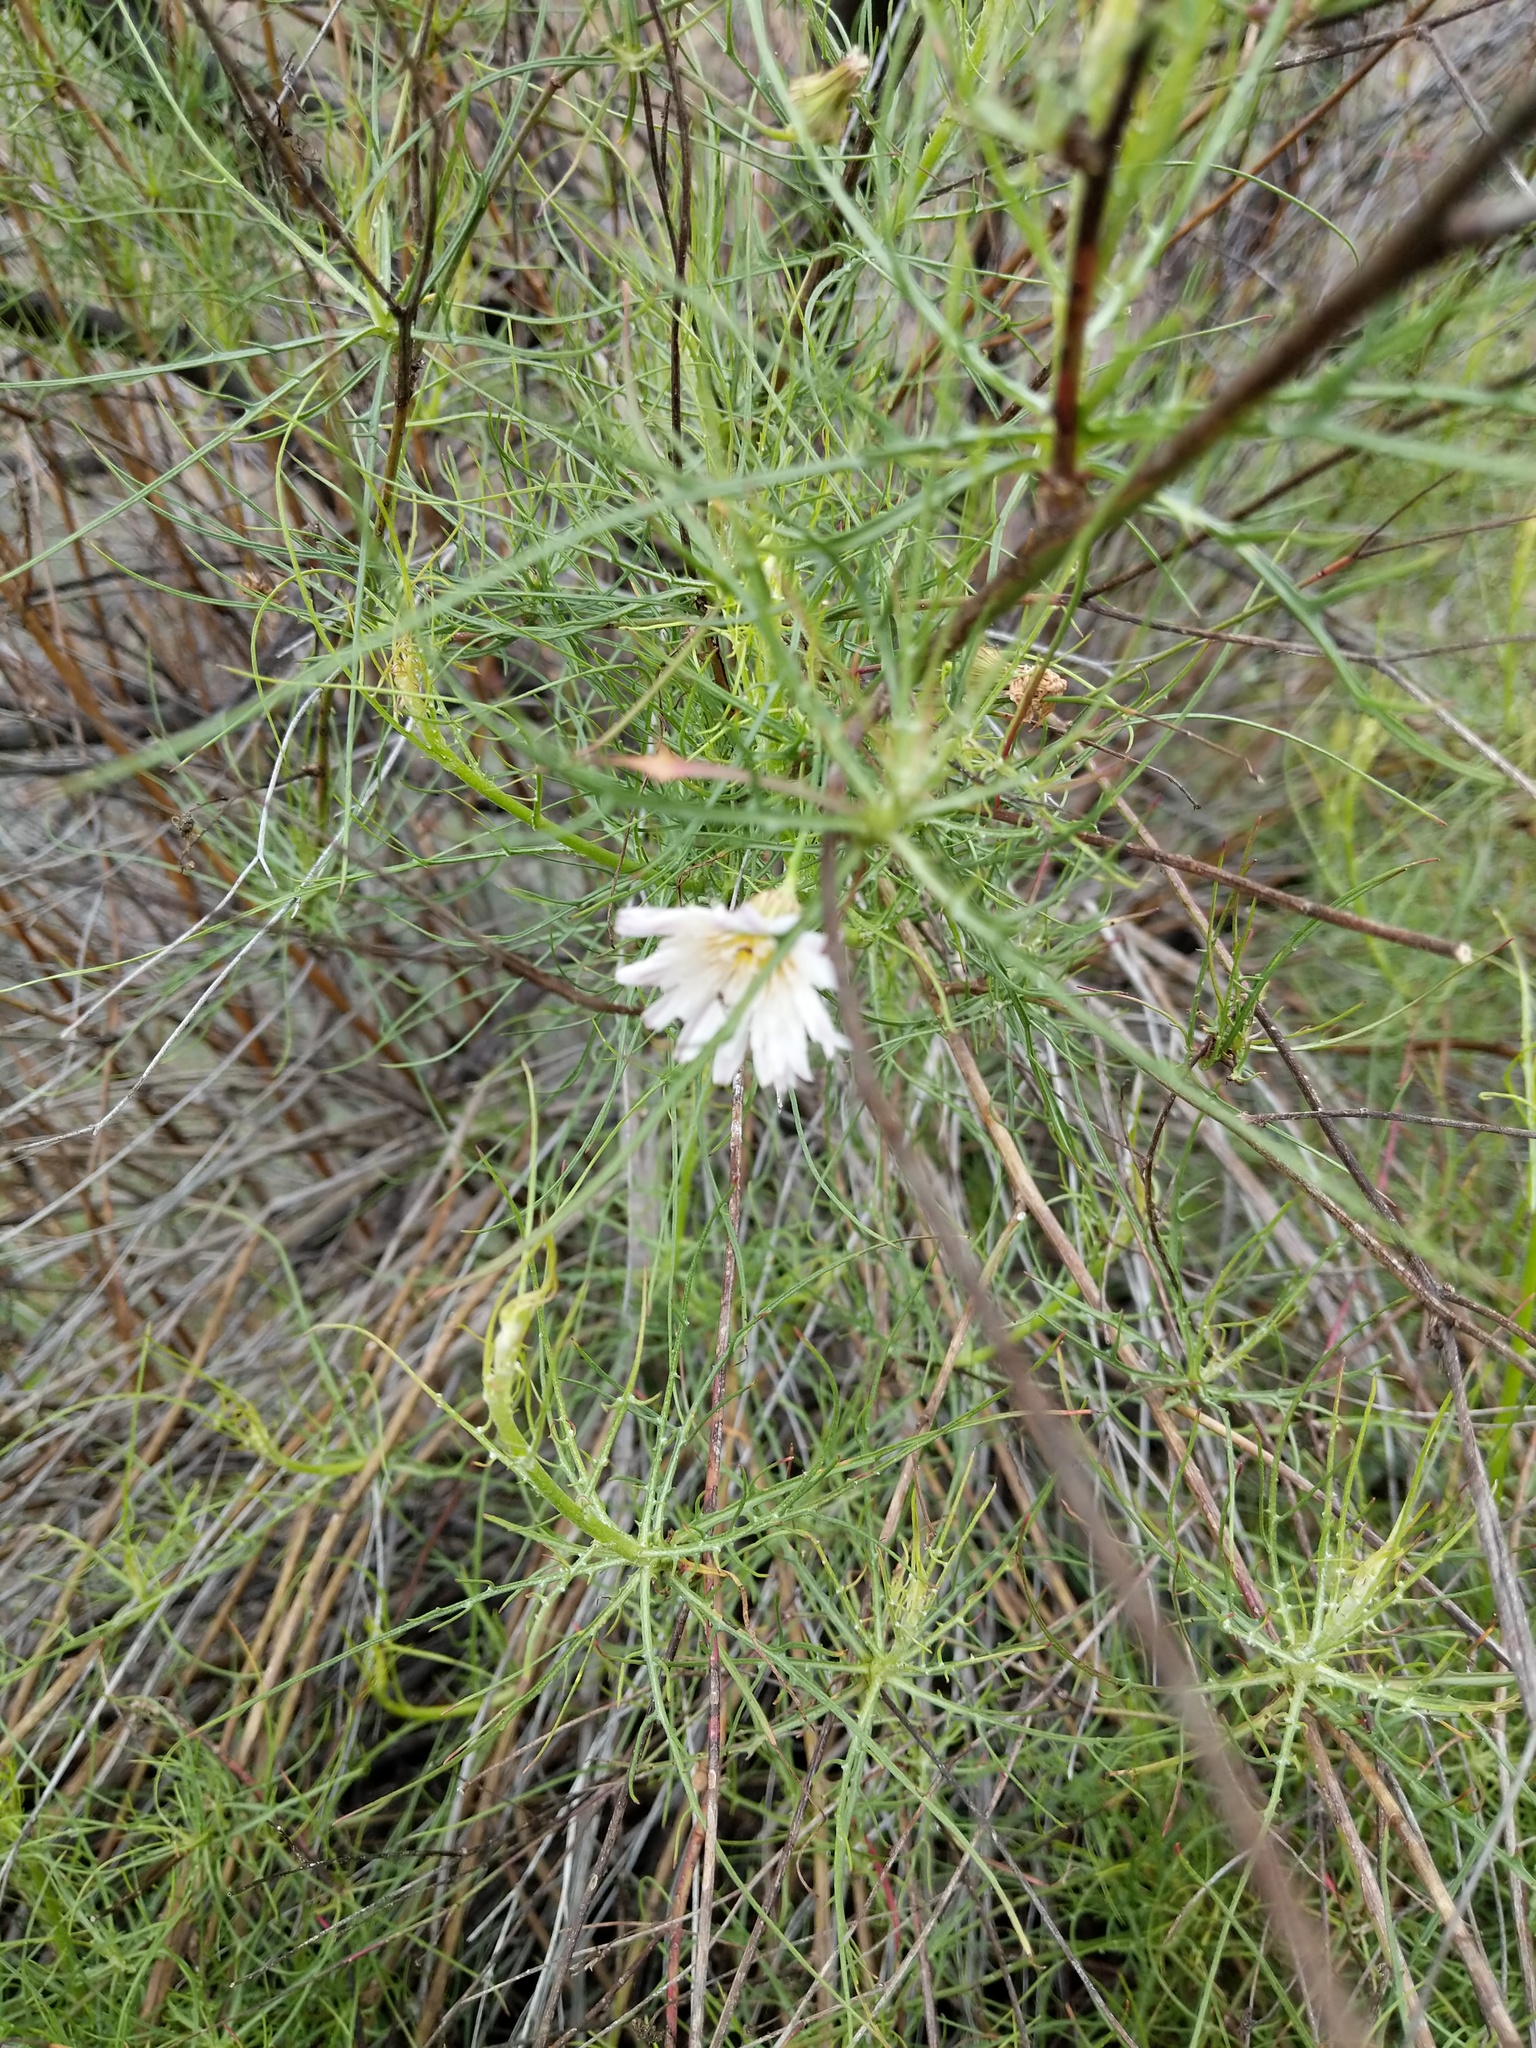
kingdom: Plantae
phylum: Tracheophyta
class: Magnoliopsida
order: Asterales
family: Asteraceae
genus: Malacothrix
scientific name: Malacothrix saxatilis
